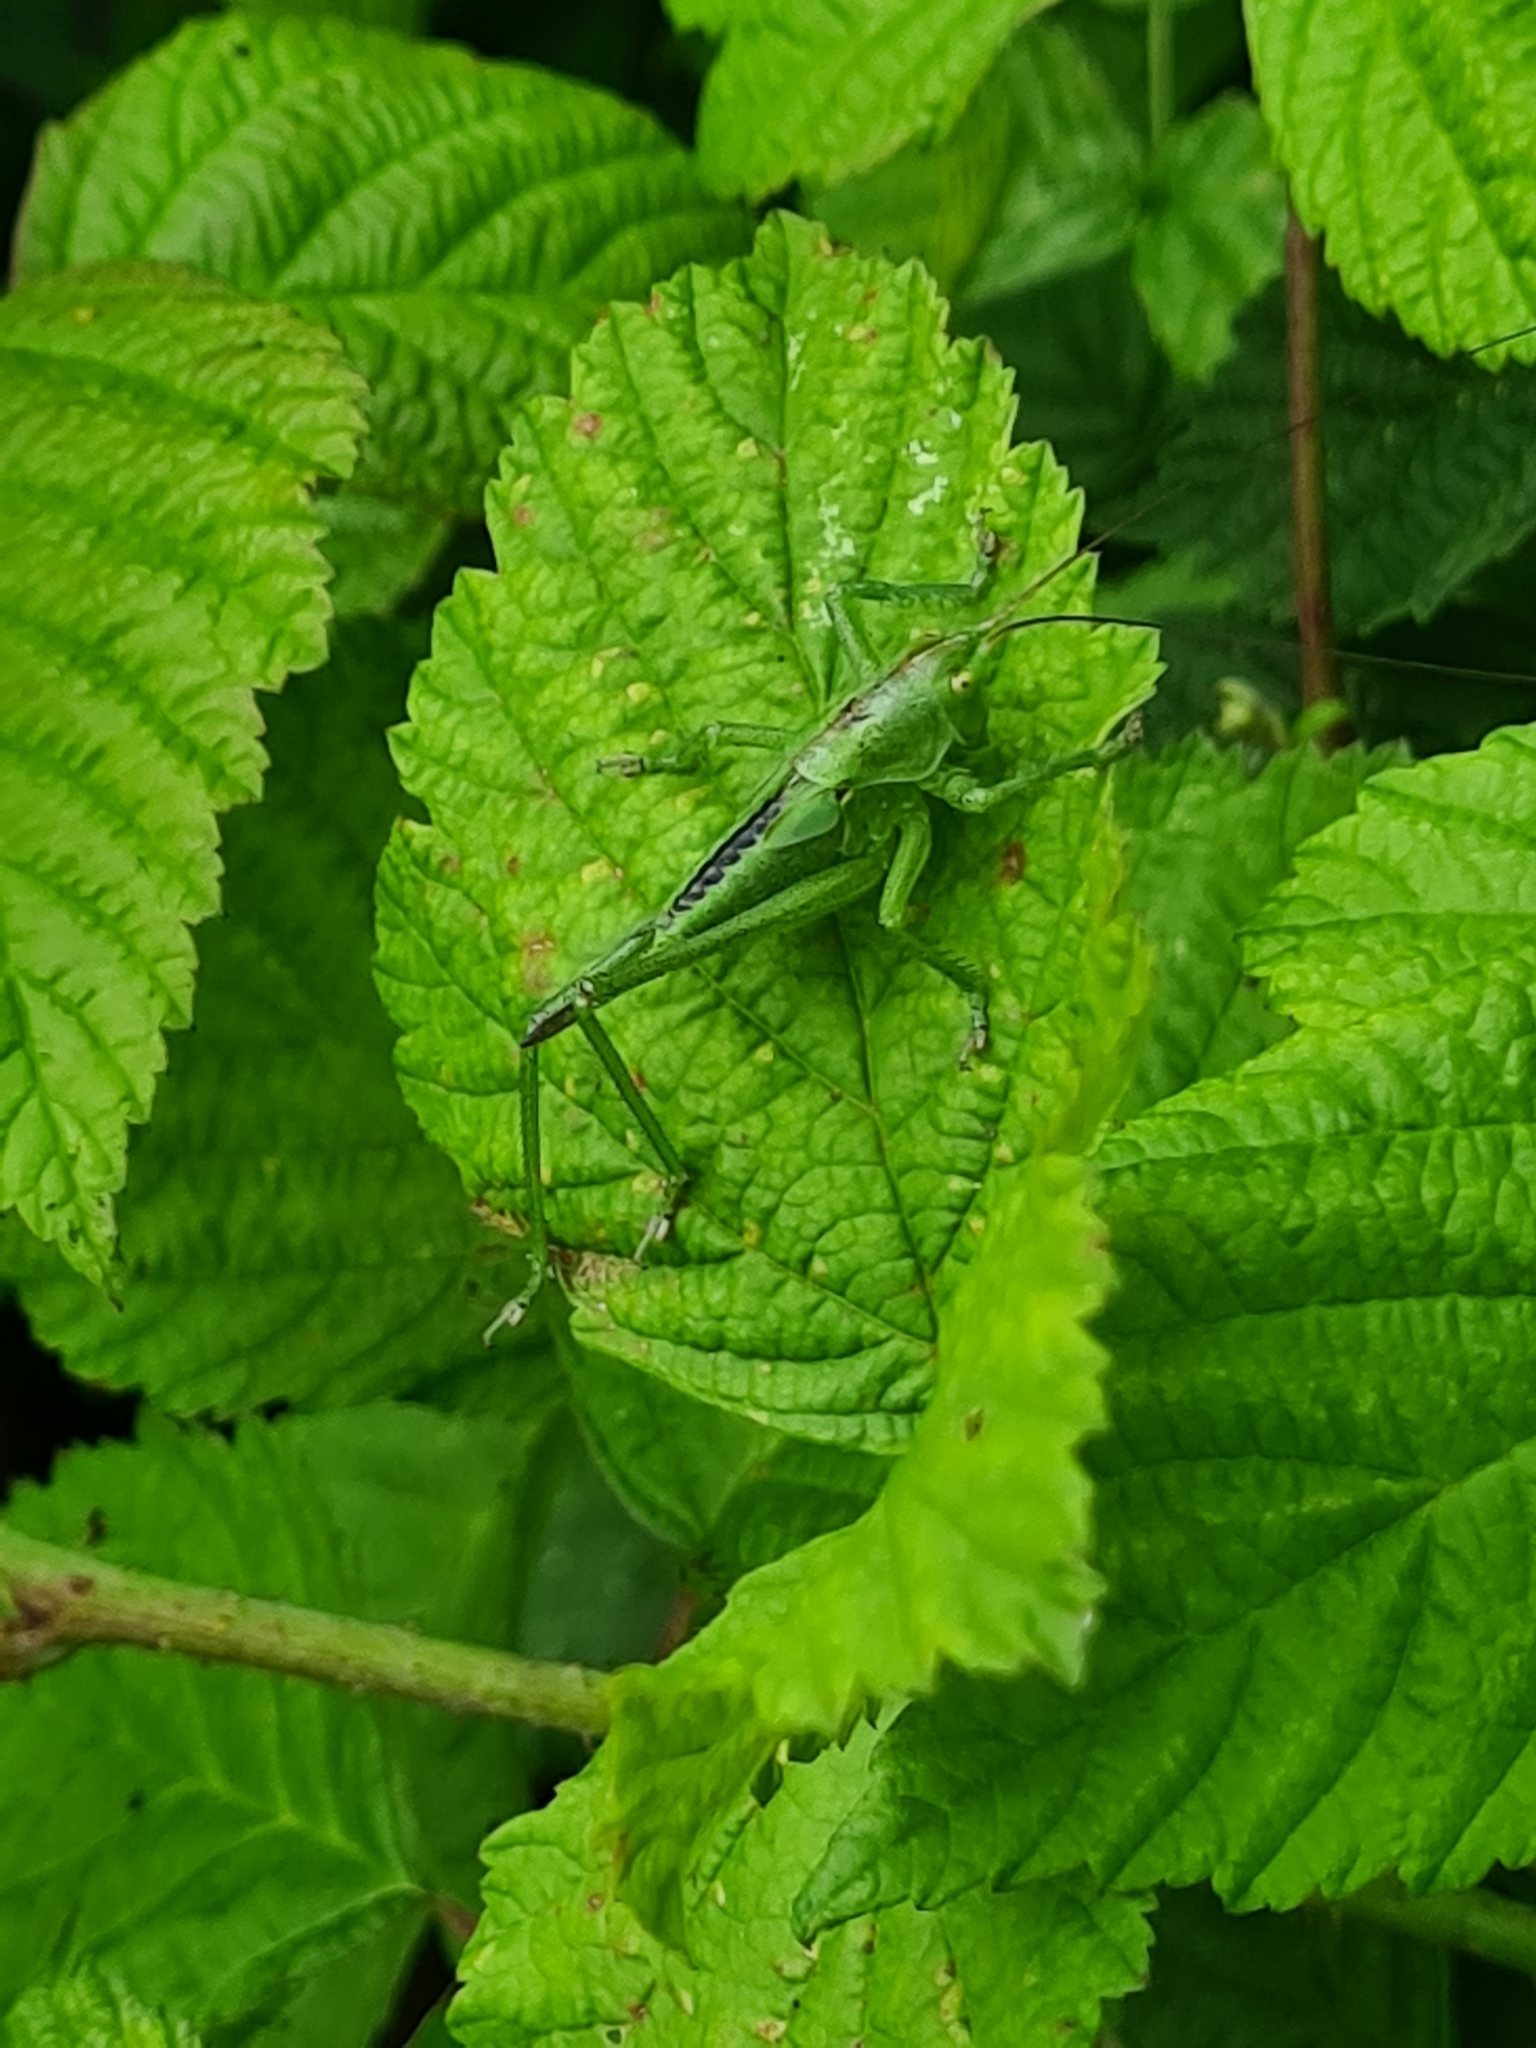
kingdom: Animalia
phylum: Arthropoda
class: Insecta
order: Orthoptera
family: Tettigoniidae
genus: Tettigonia
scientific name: Tettigonia viridissima
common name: Great green bush-cricket
